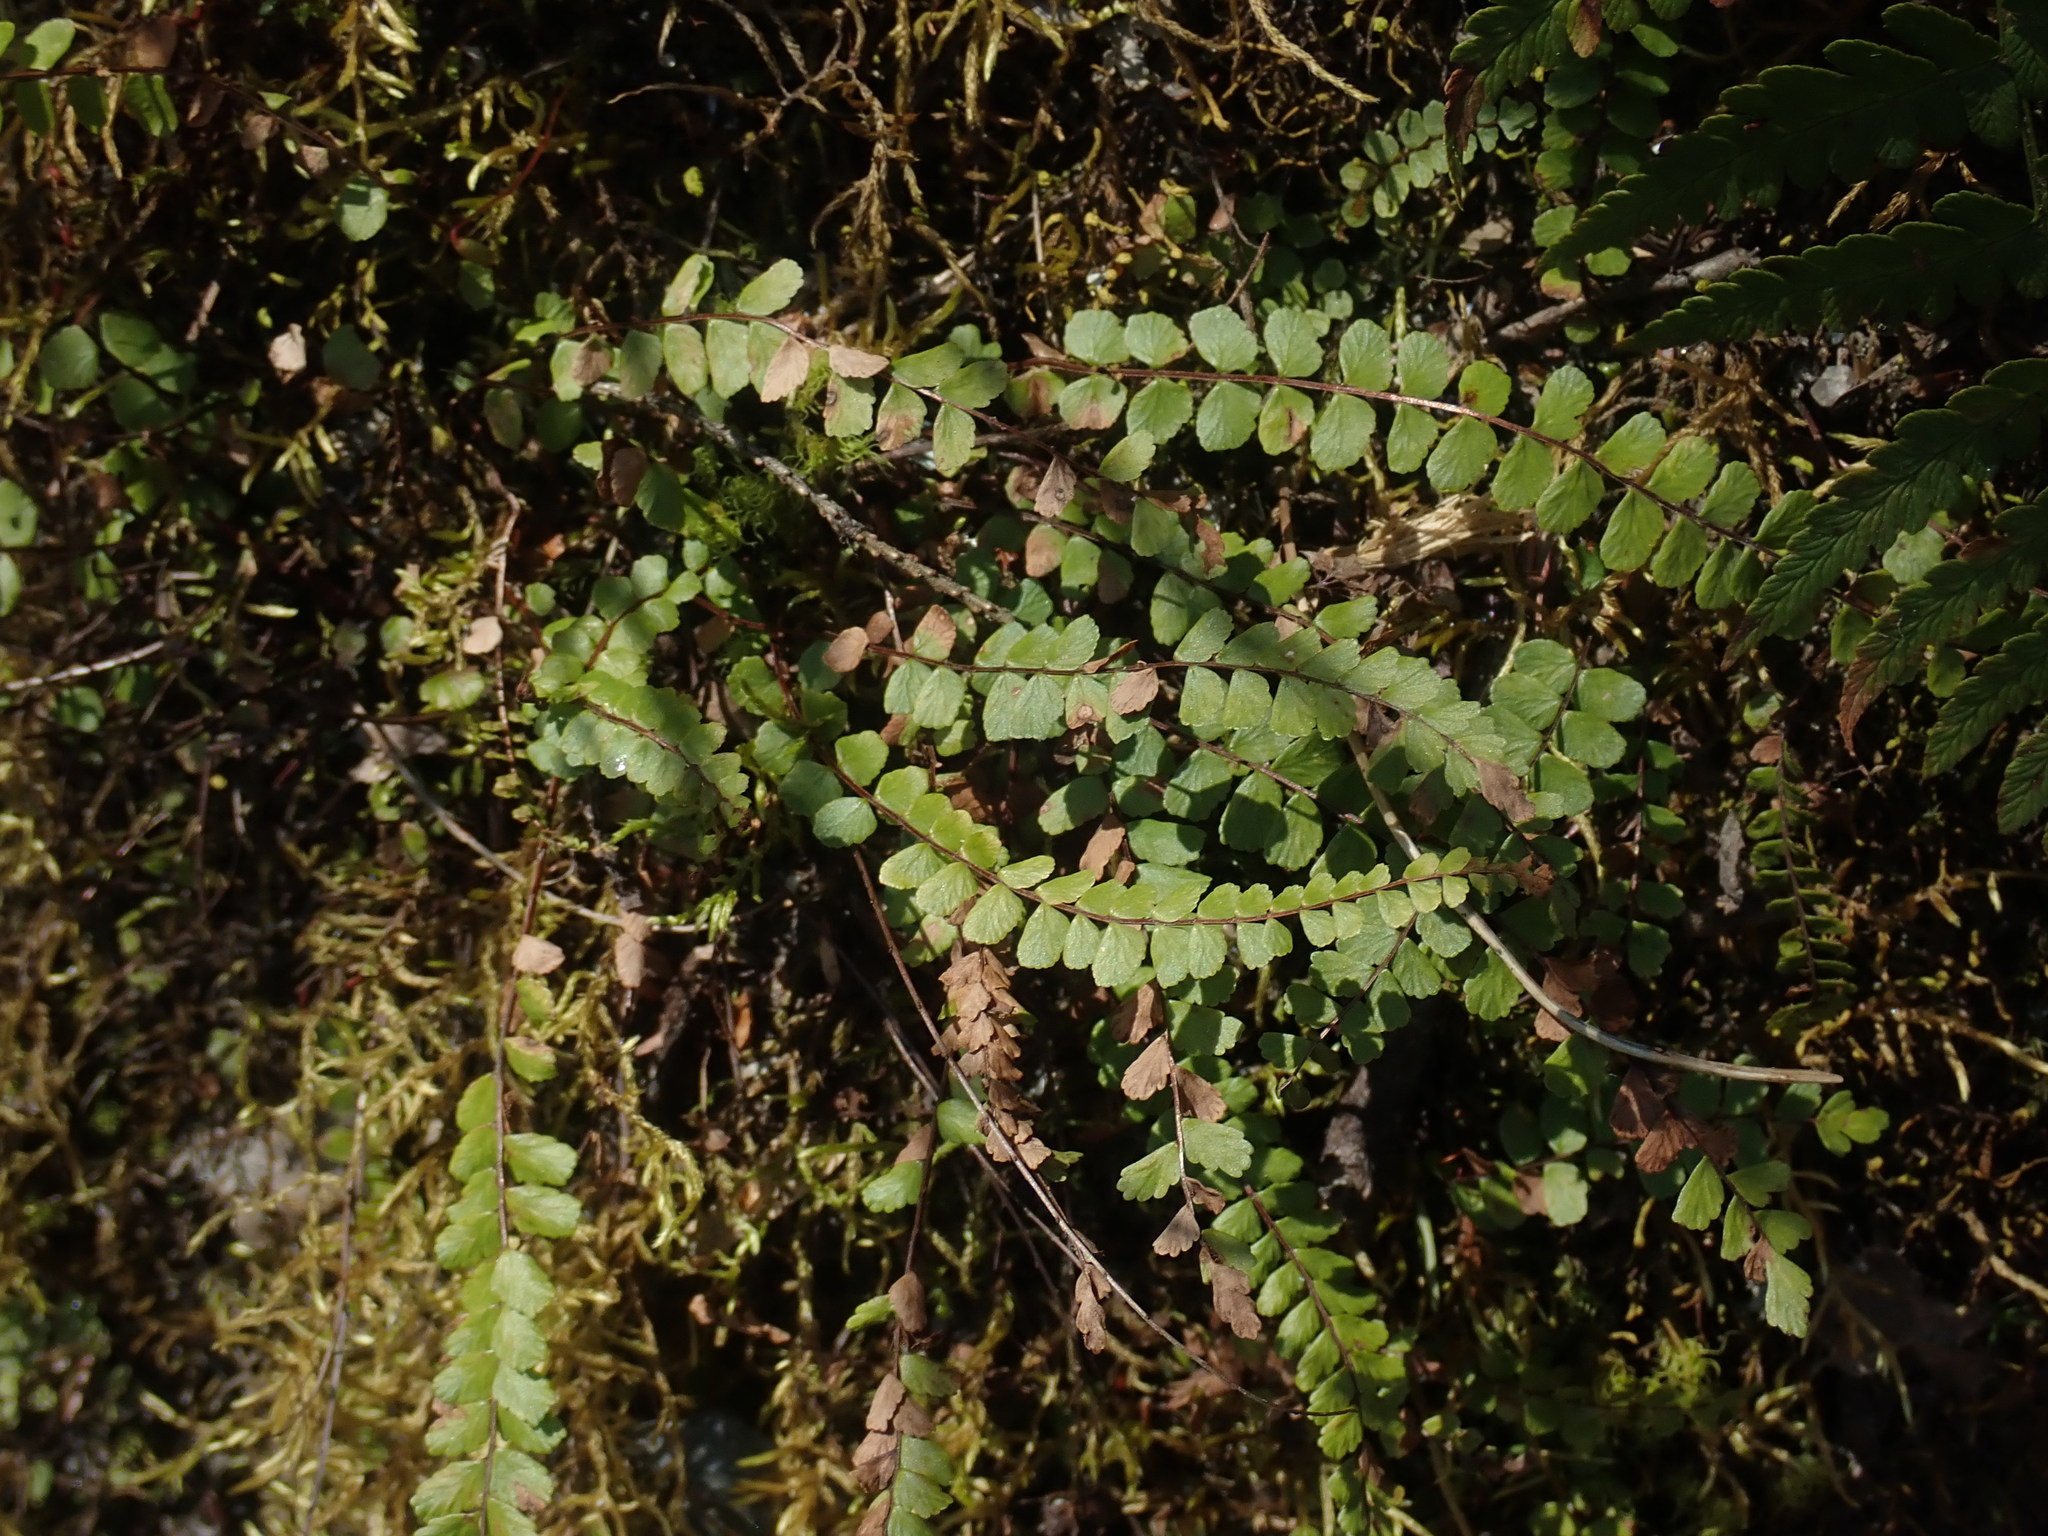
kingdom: Plantae
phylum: Tracheophyta
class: Polypodiopsida
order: Polypodiales
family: Aspleniaceae
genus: Asplenium
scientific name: Asplenium trichomanes
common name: Maidenhair spleenwort
